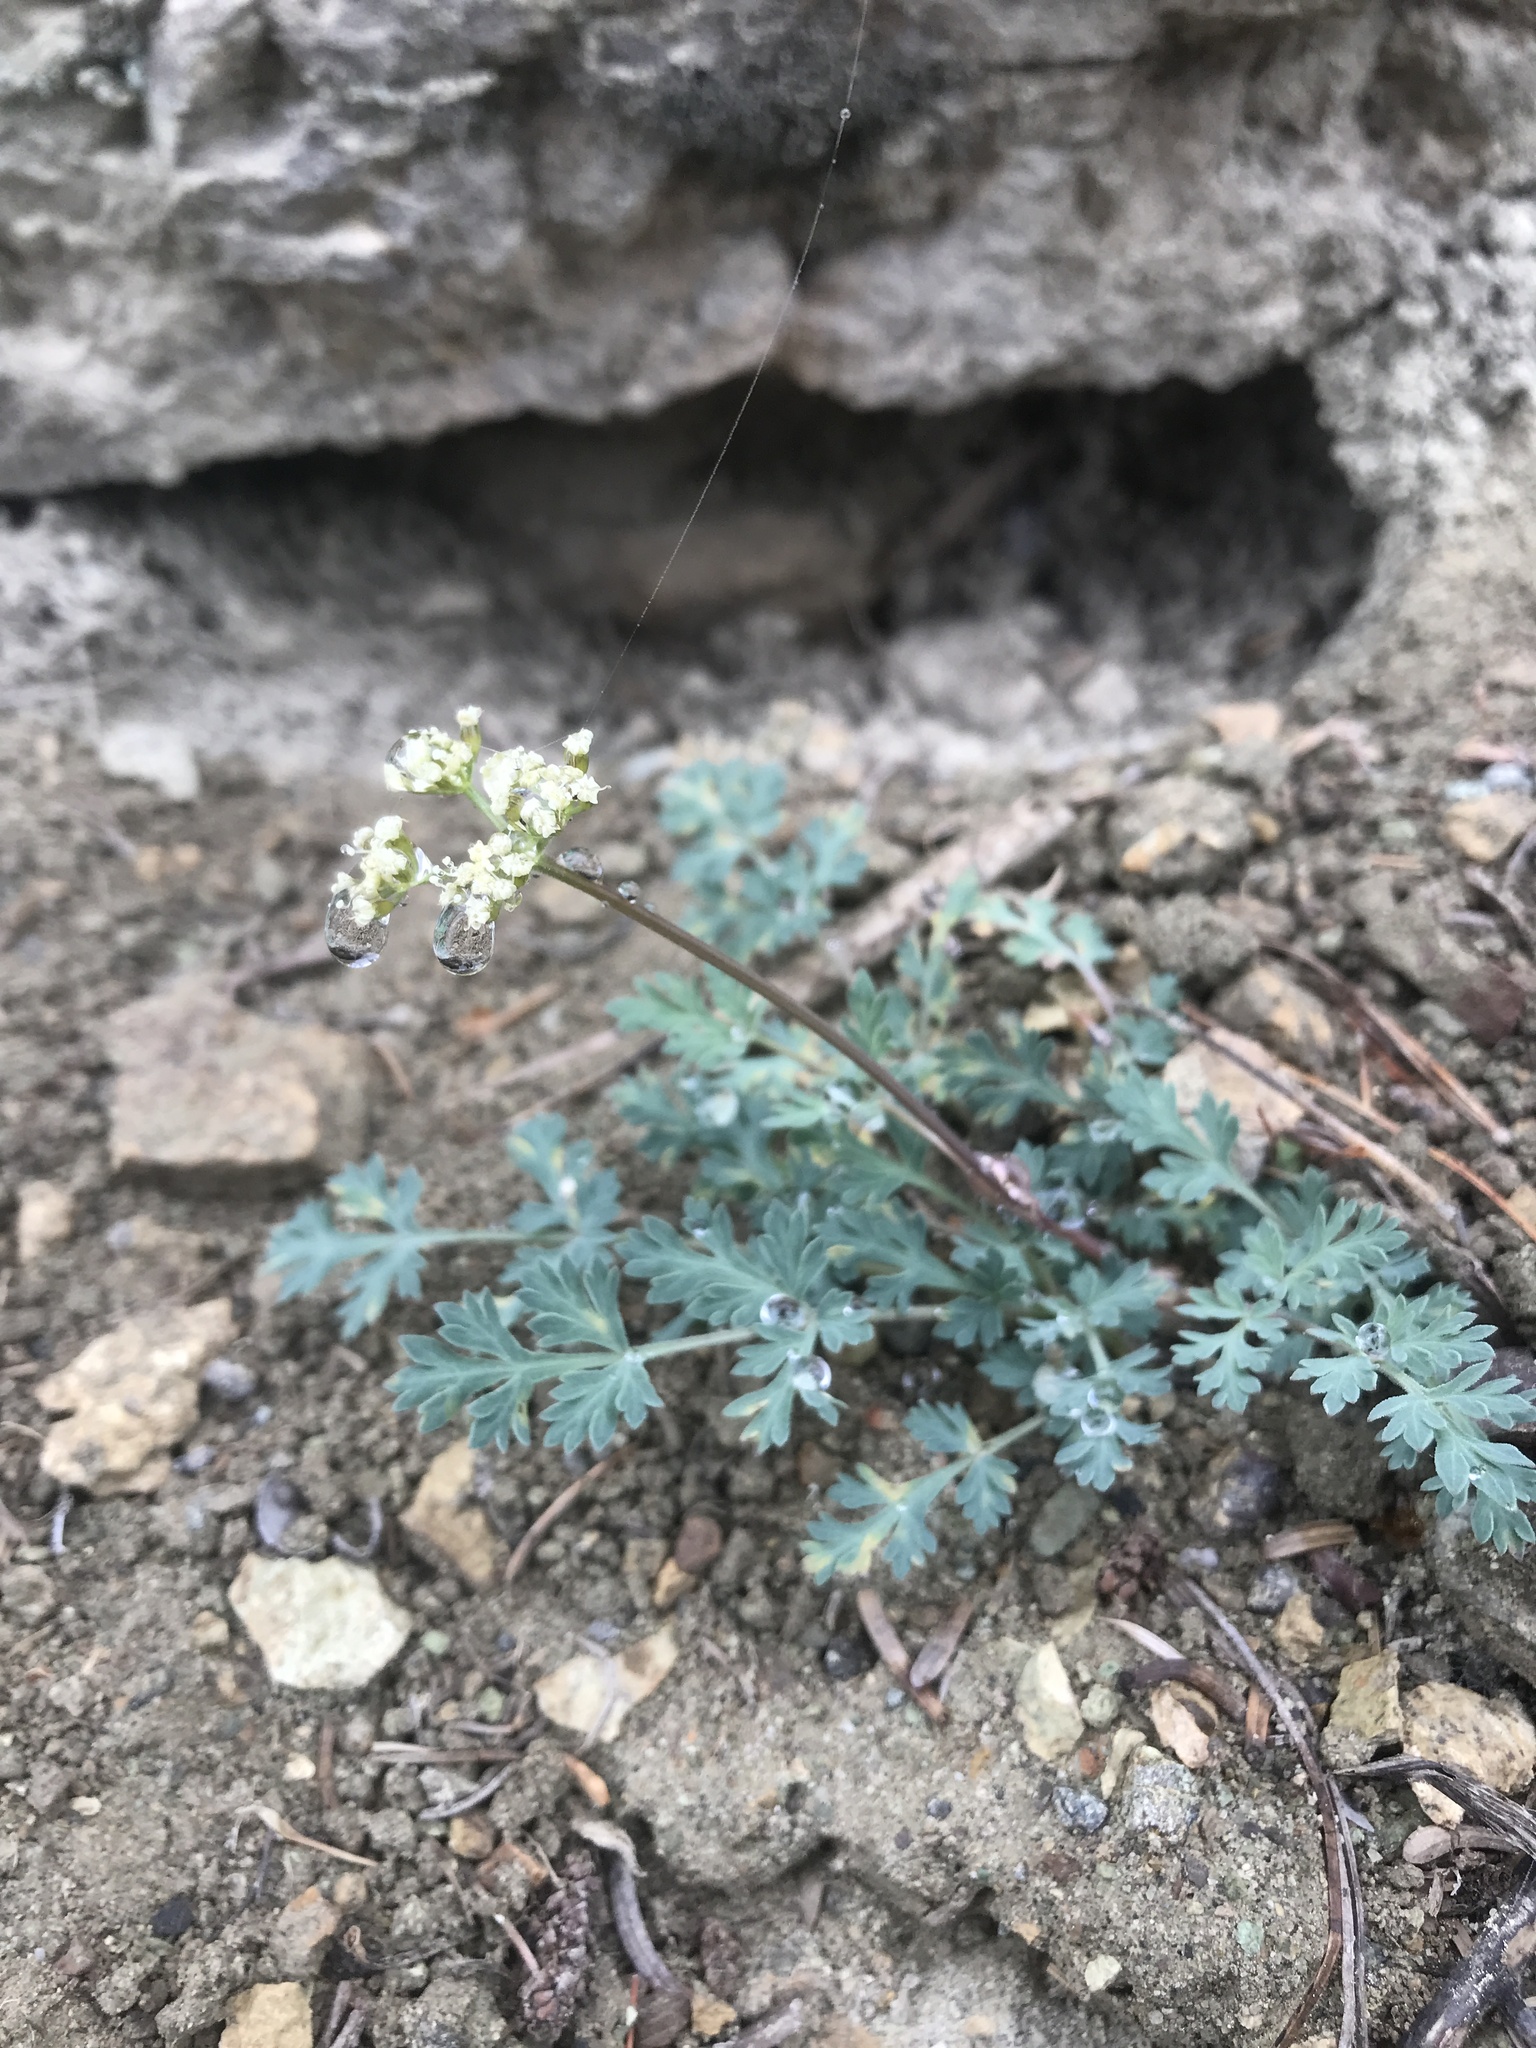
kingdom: Plantae
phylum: Tracheophyta
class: Magnoliopsida
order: Apiales
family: Apiaceae
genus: Sanicula
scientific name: Sanicula graveolens
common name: Sierra sanicle
